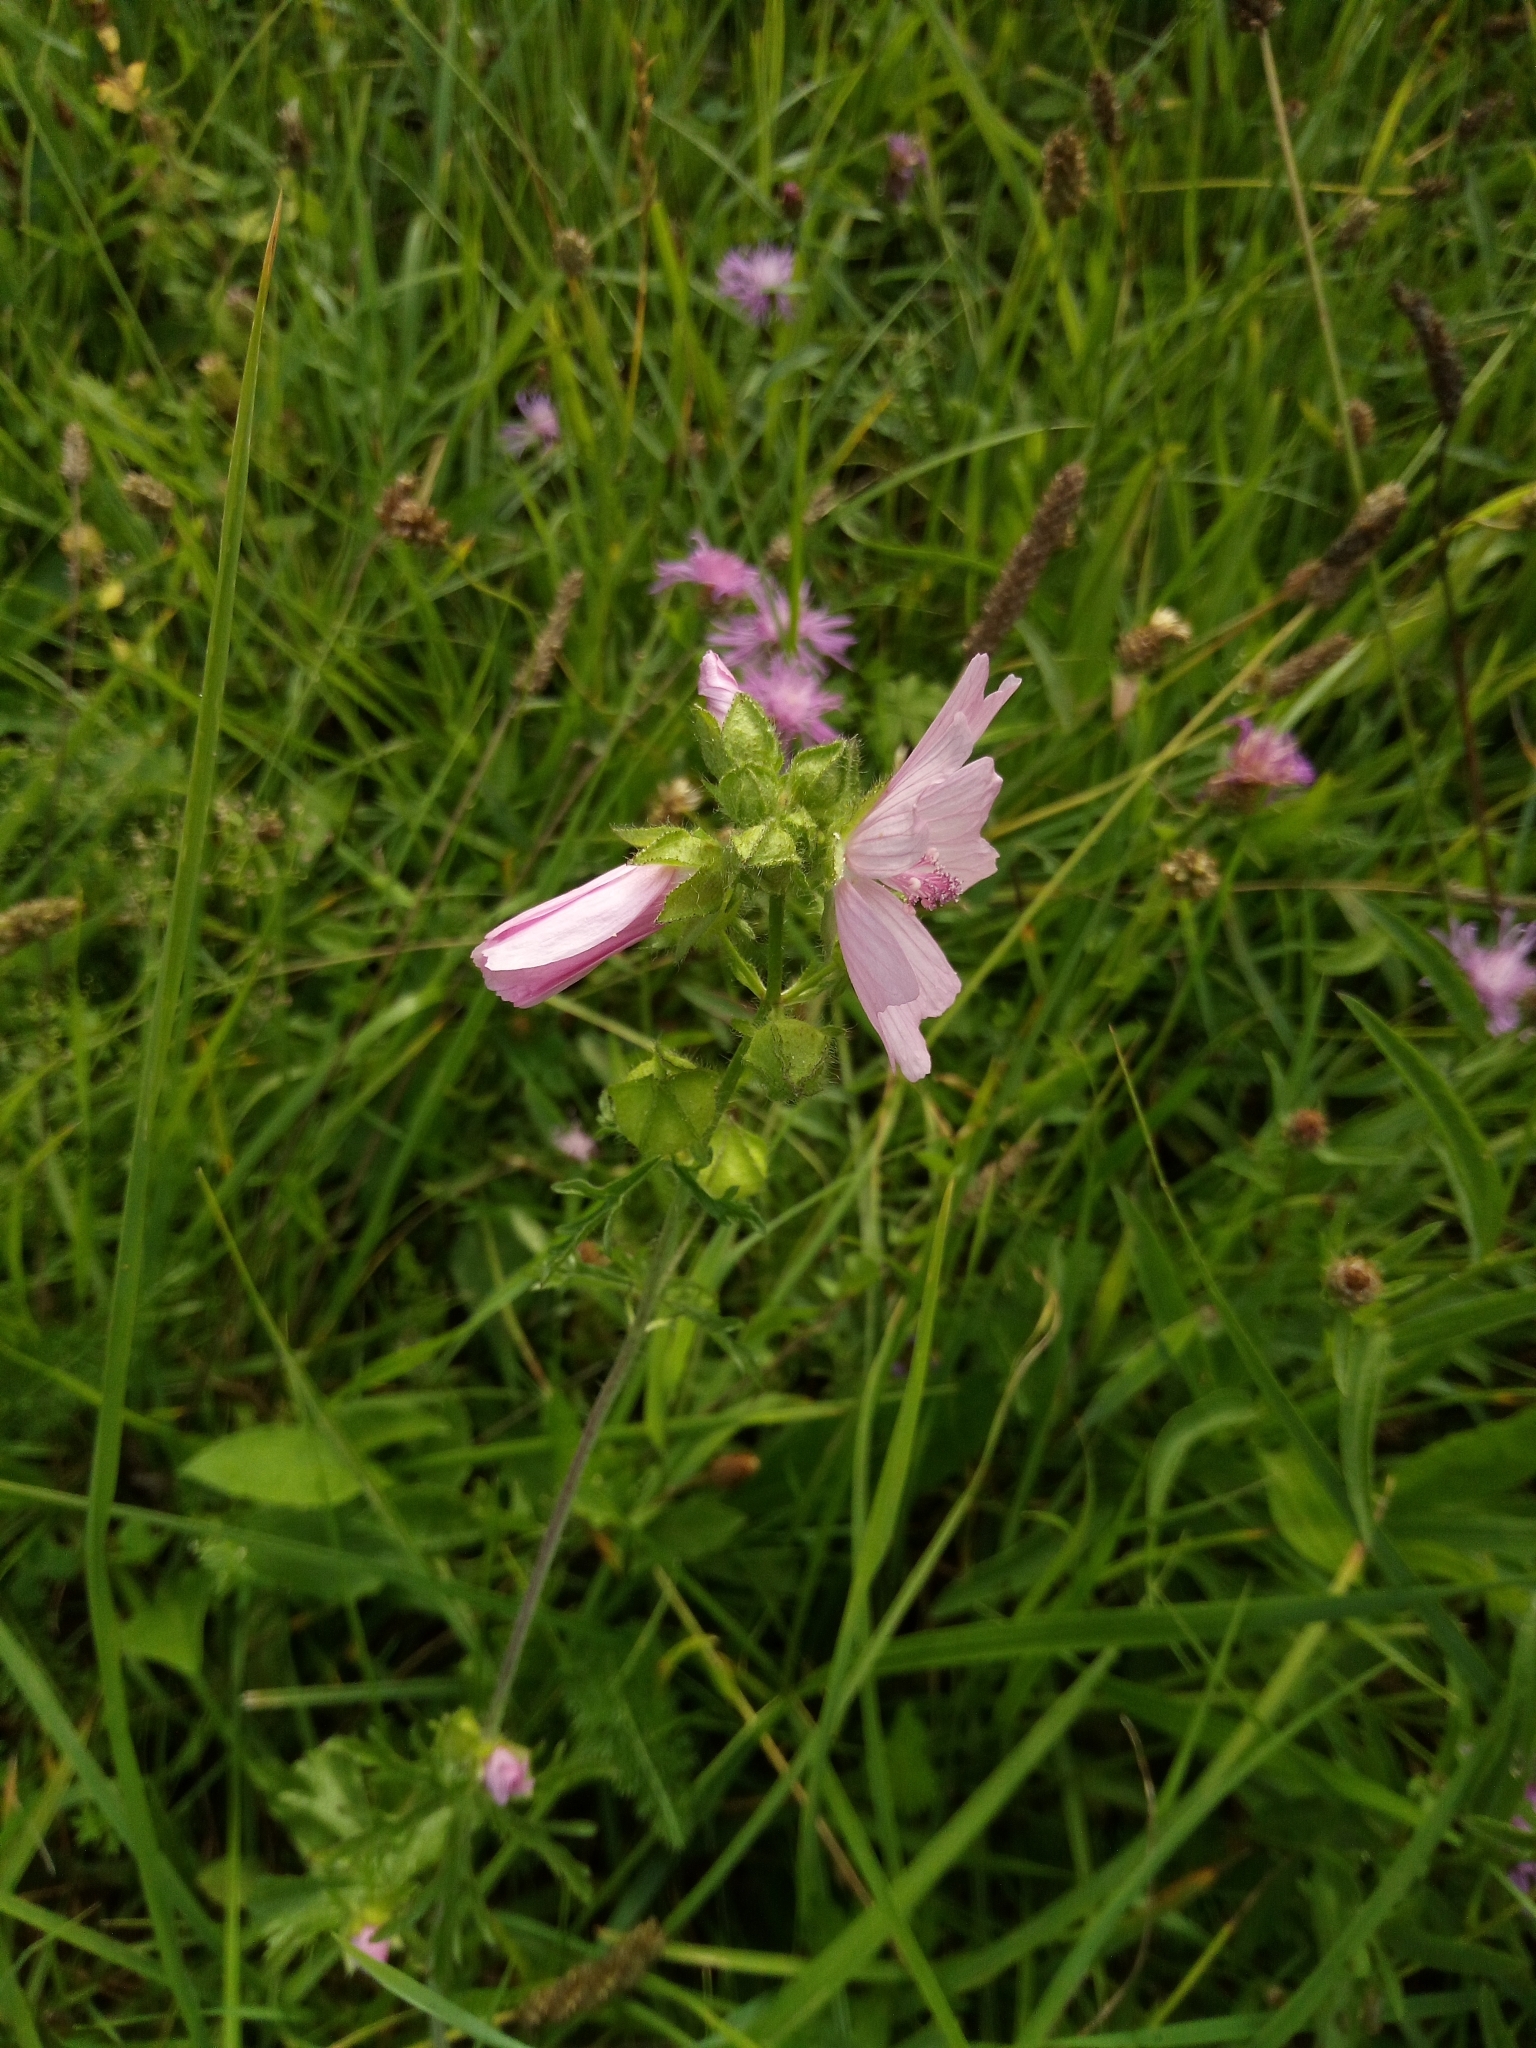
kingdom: Plantae
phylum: Tracheophyta
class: Magnoliopsida
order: Malvales
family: Malvaceae
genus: Malva
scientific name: Malva moschata
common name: Musk mallow
